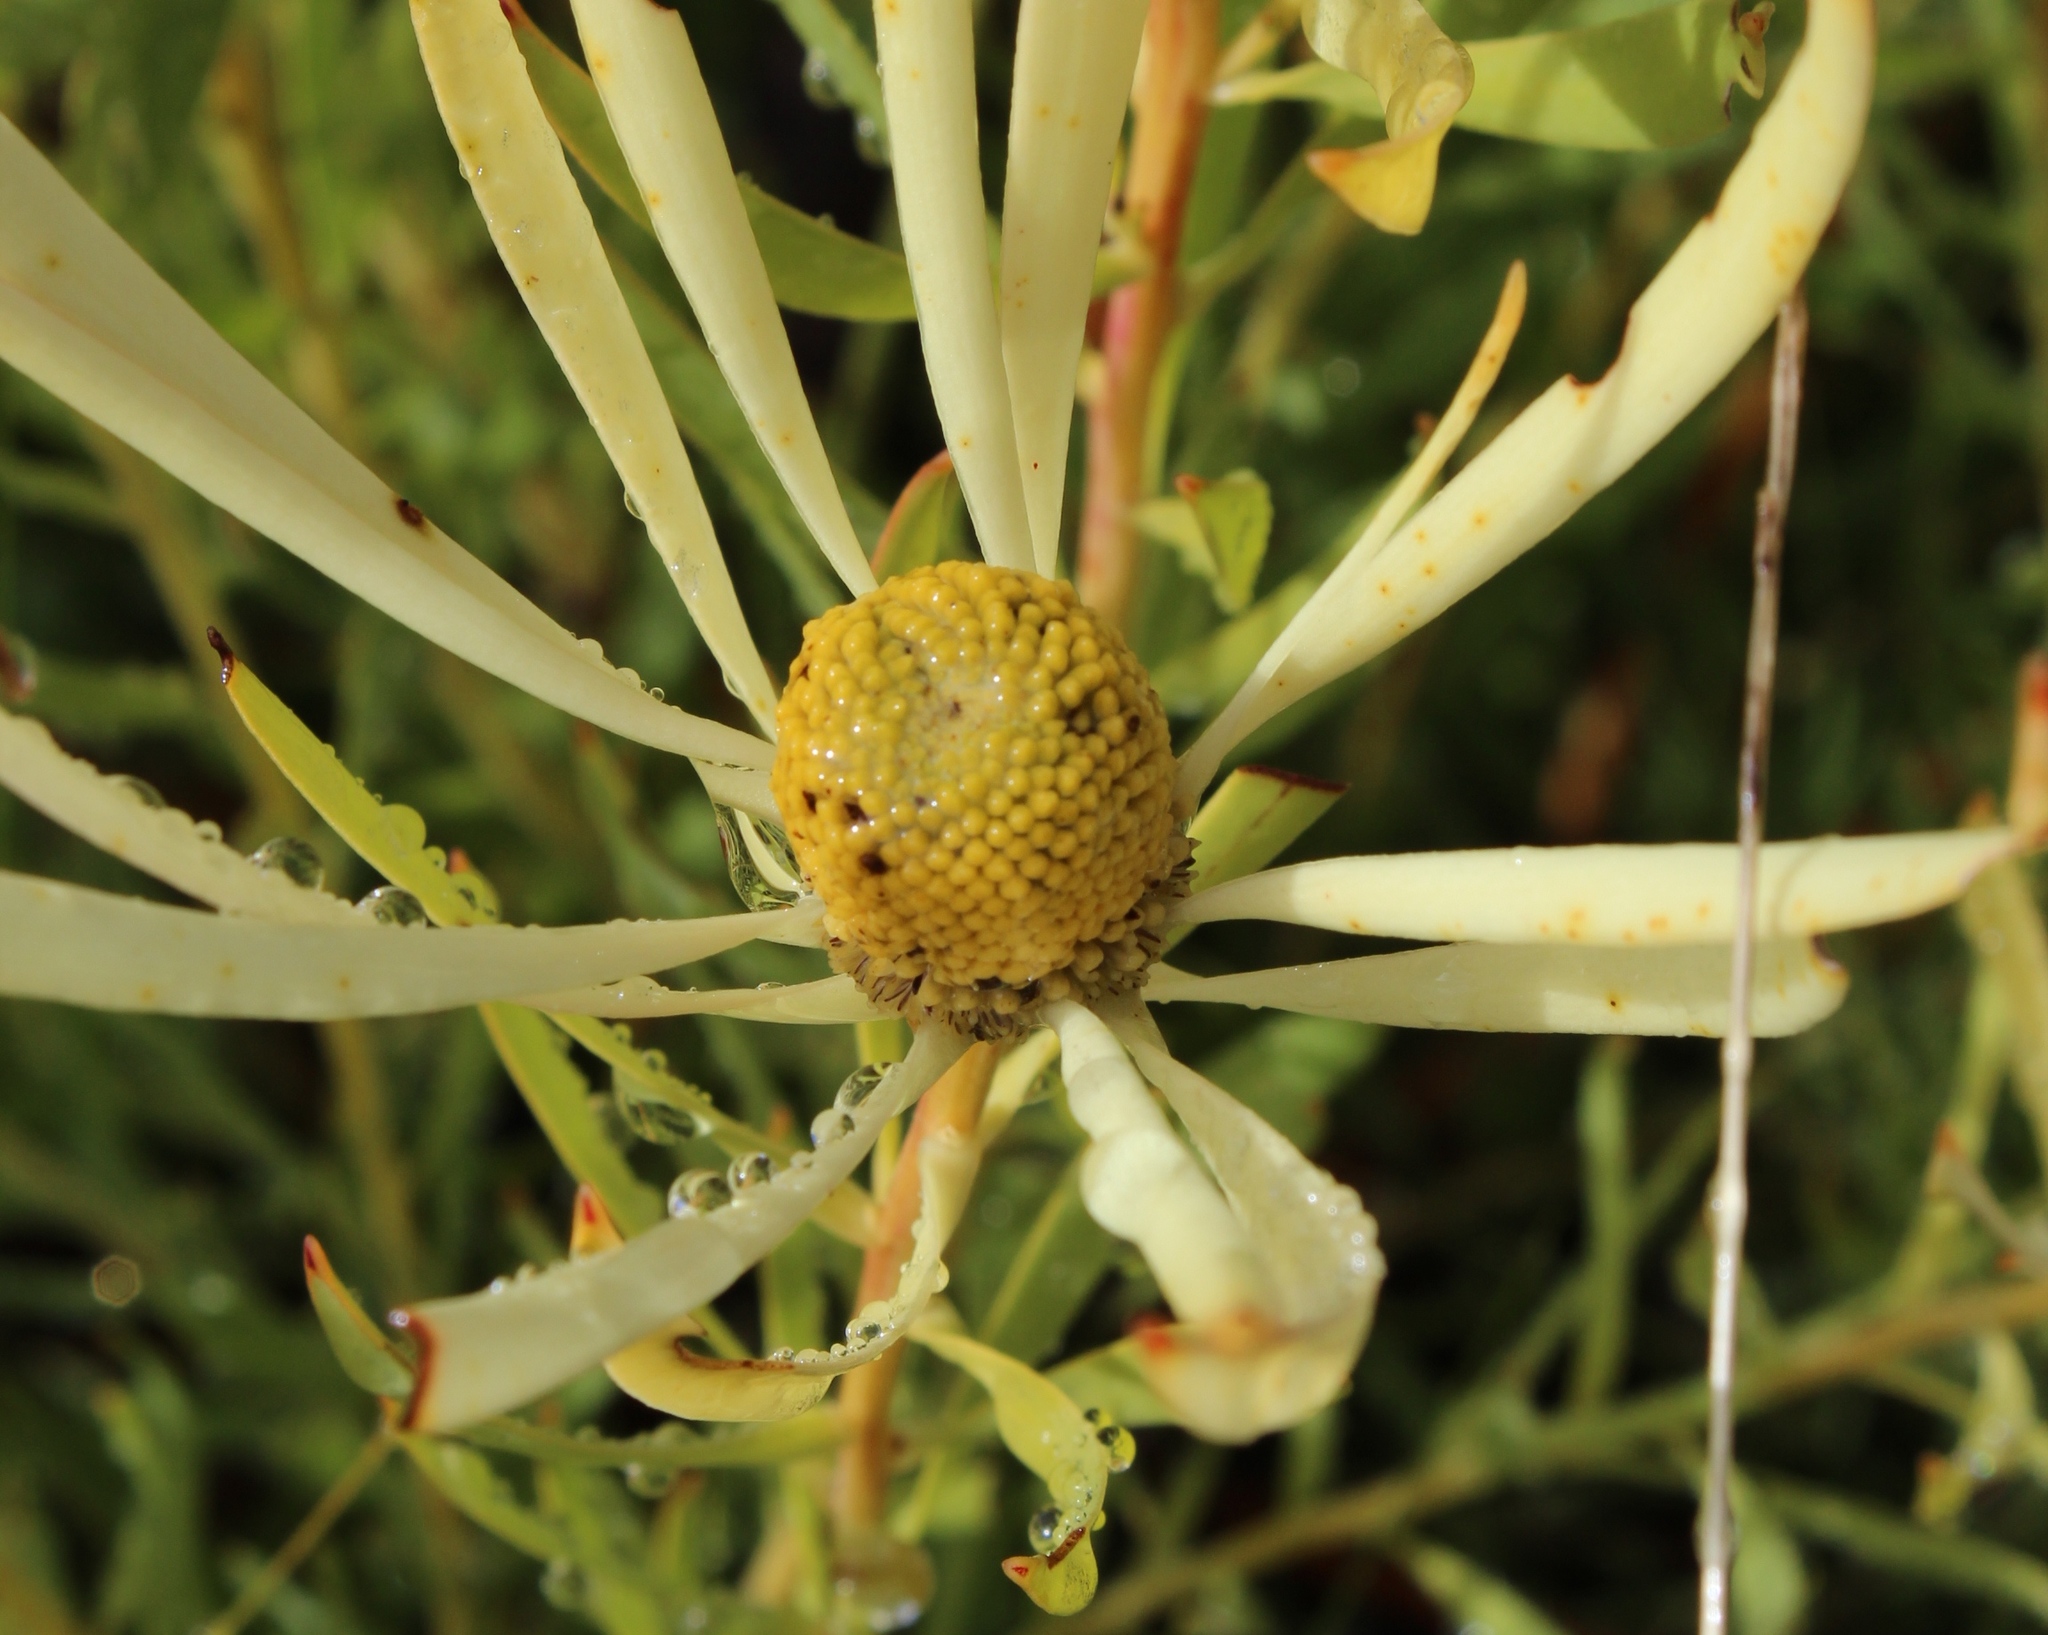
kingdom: Plantae
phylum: Tracheophyta
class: Magnoliopsida
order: Proteales
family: Proteaceae
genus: Leucadendron
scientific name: Leucadendron salignum
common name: Common sunshine conebush
